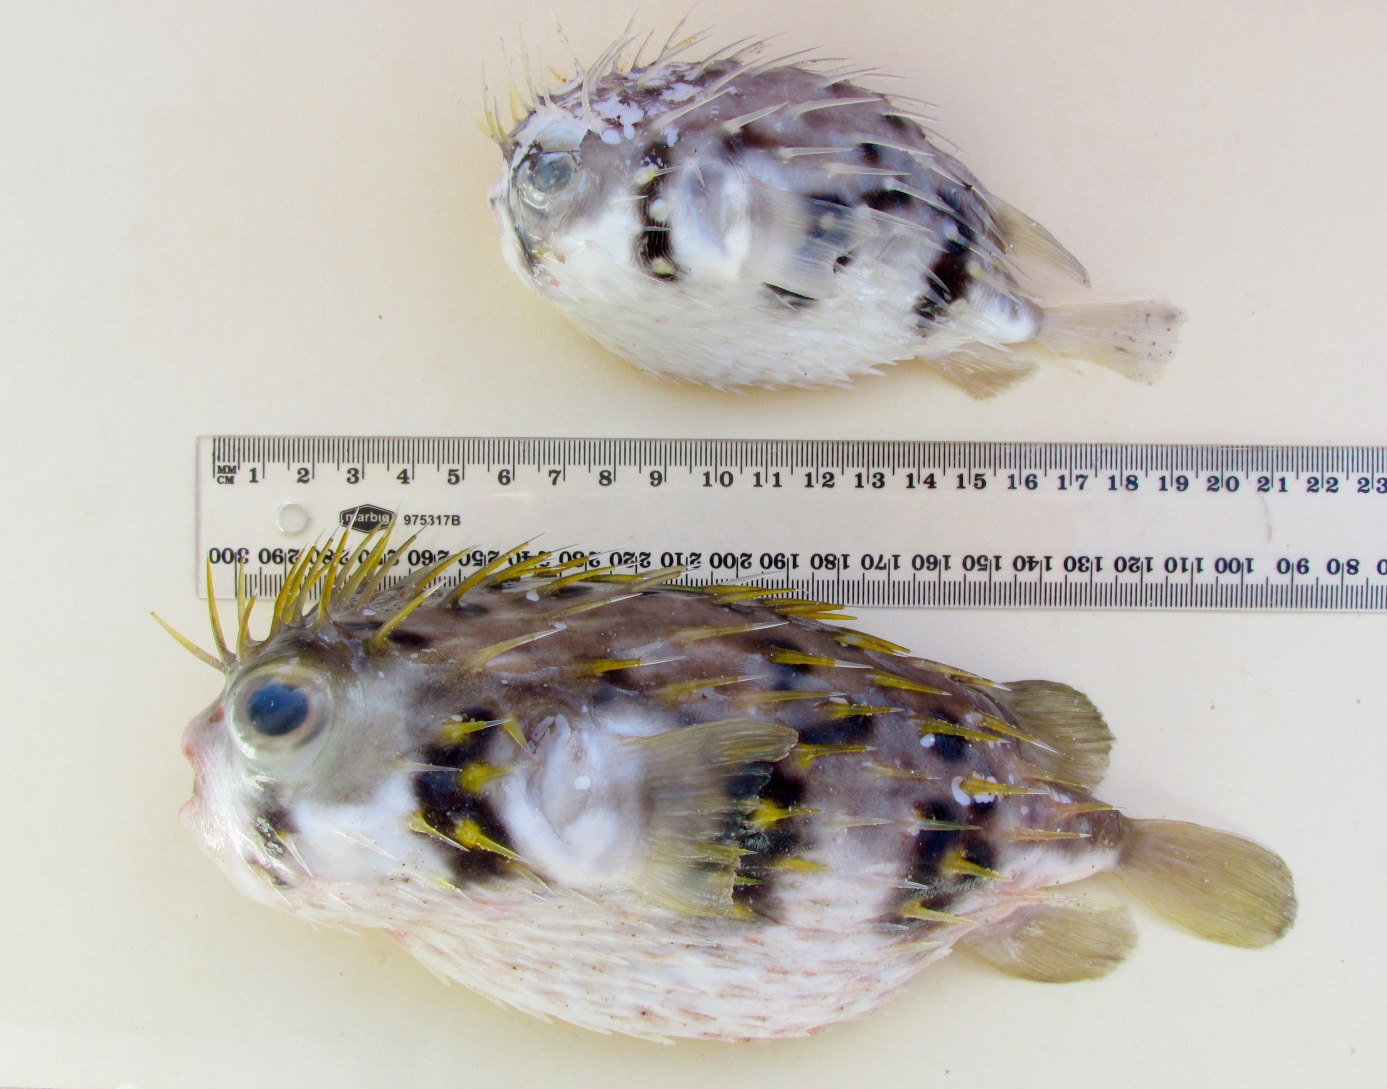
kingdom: Animalia
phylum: Chordata
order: Tetraodontiformes
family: Diodontidae
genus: Diodon
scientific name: Diodon nicthemerus
